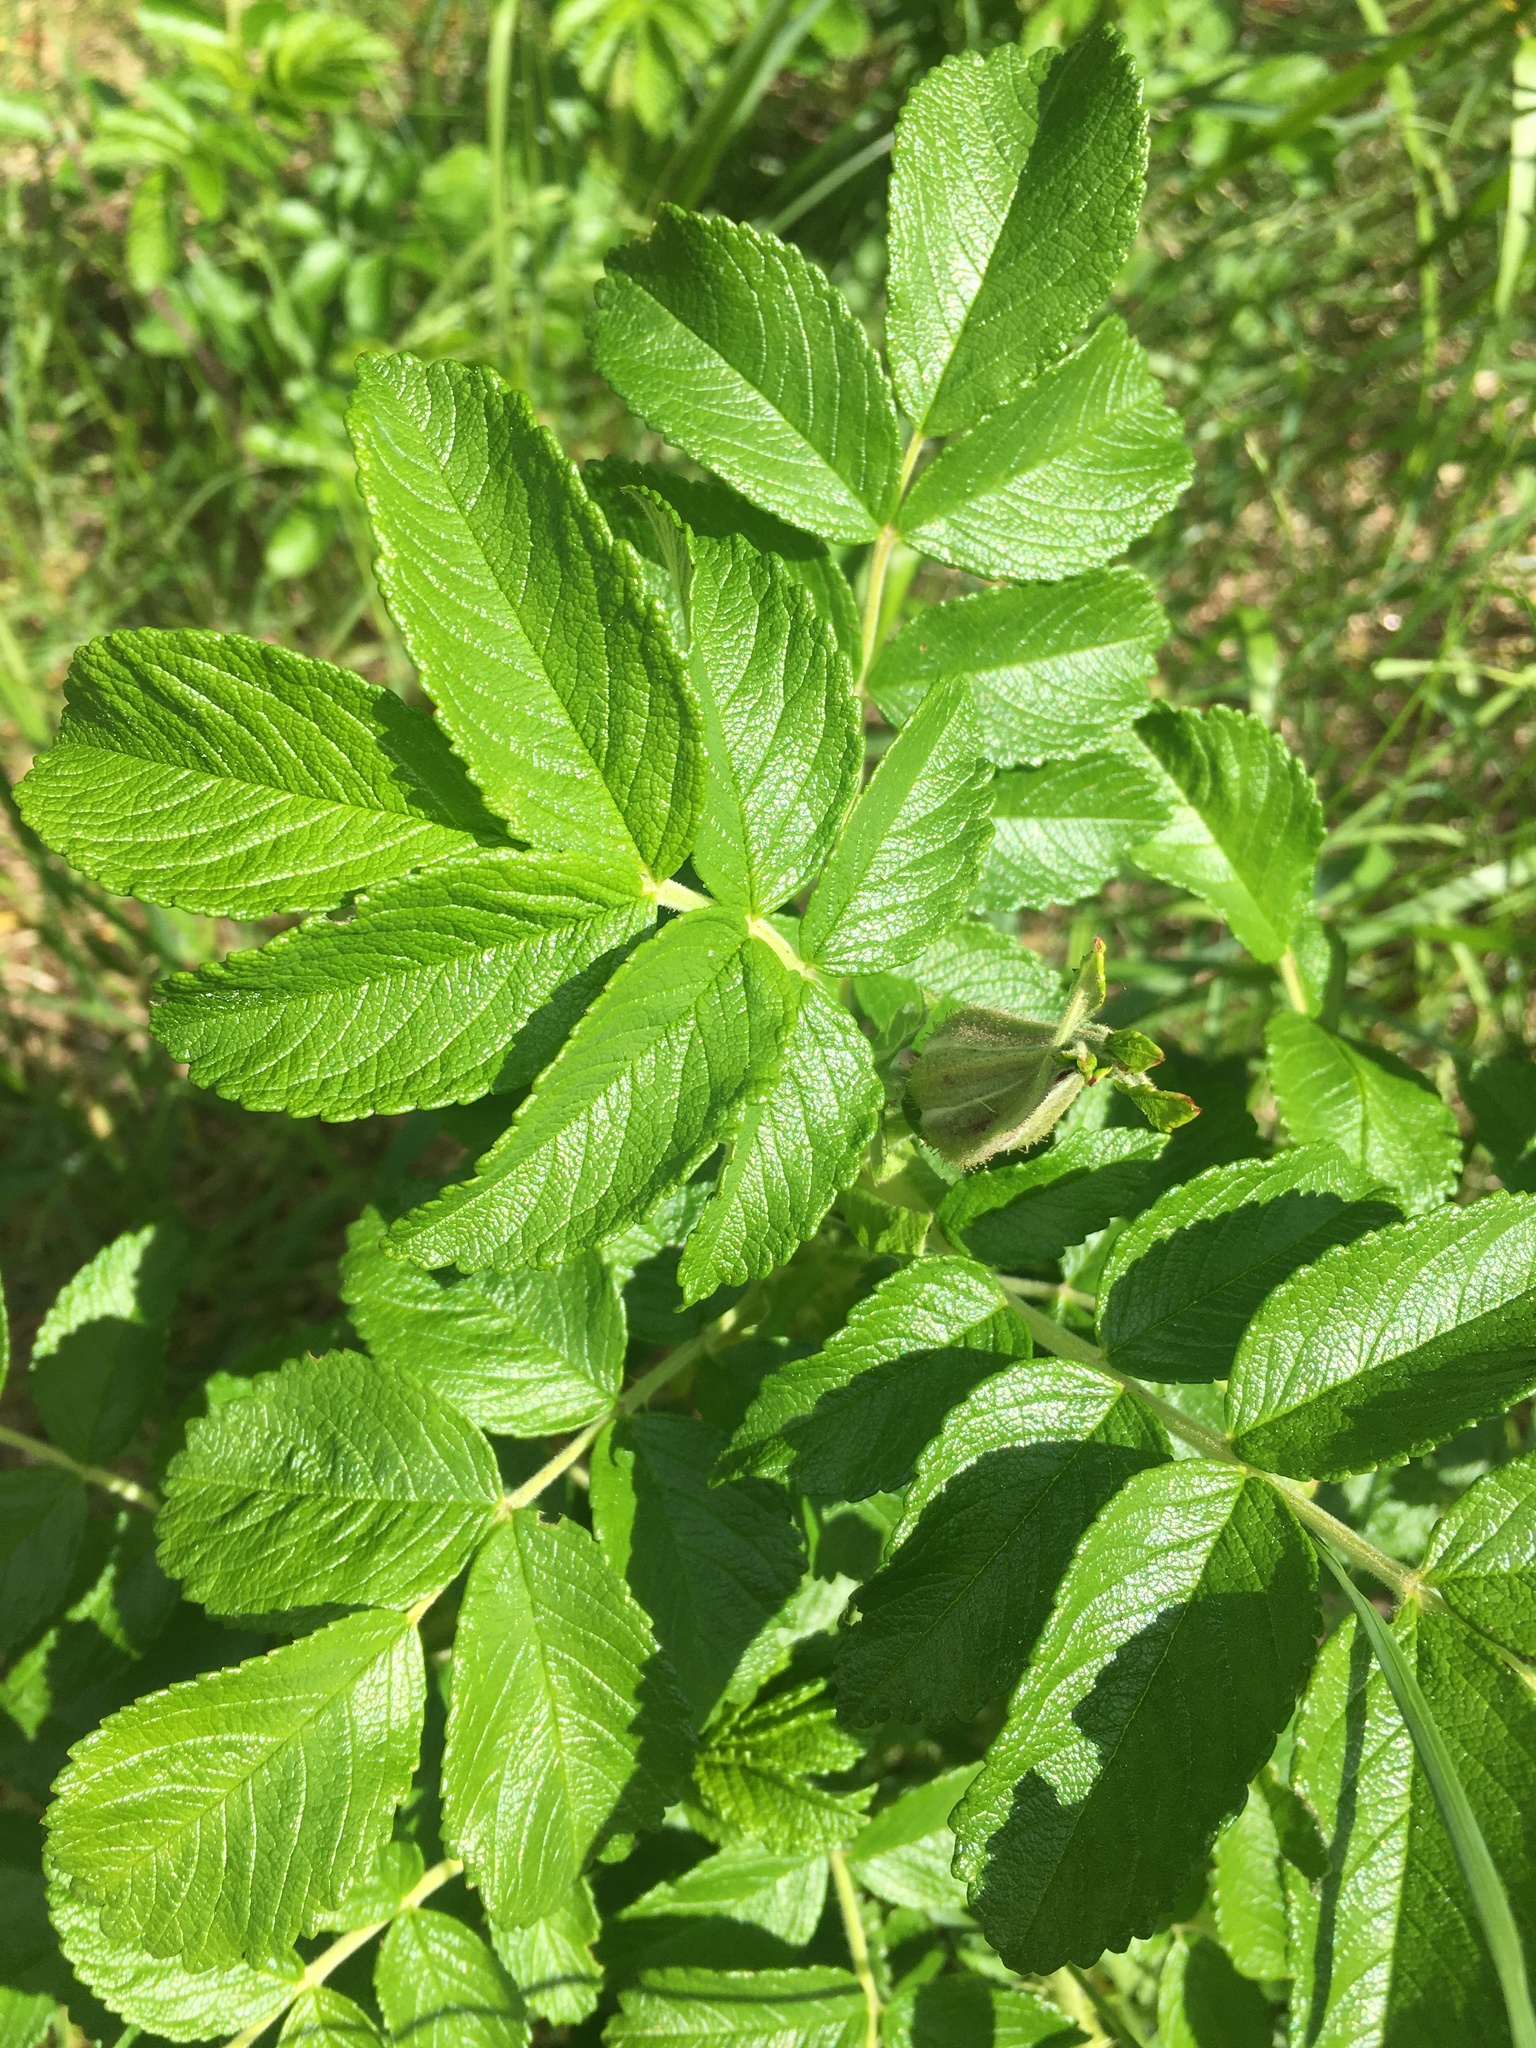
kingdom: Plantae
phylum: Tracheophyta
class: Magnoliopsida
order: Rosales
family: Rosaceae
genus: Rosa
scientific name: Rosa rugosa
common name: Japanese rose
